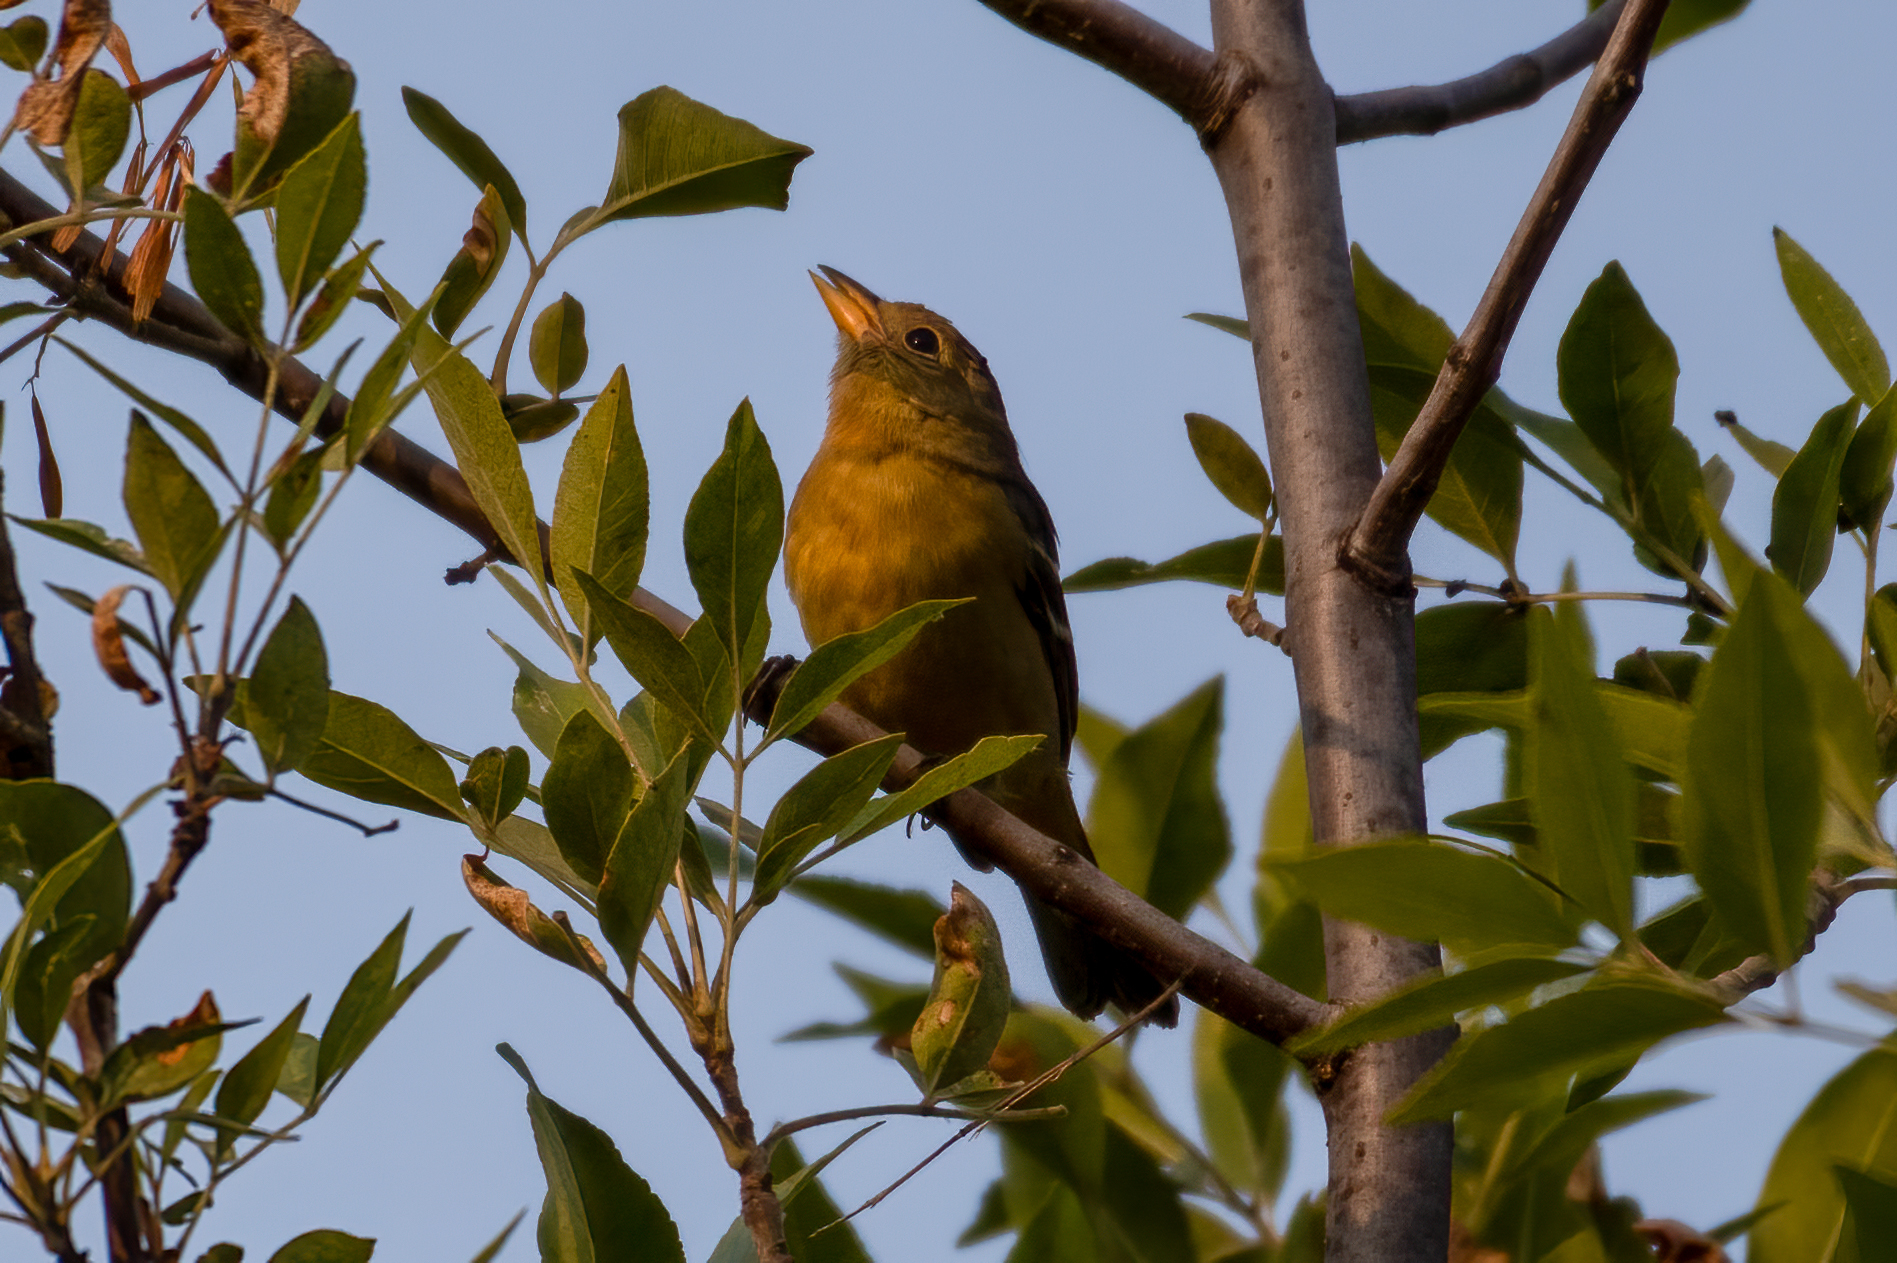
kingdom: Animalia
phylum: Chordata
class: Aves
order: Passeriformes
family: Cardinalidae
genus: Piranga
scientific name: Piranga ludoviciana
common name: Western tanager
